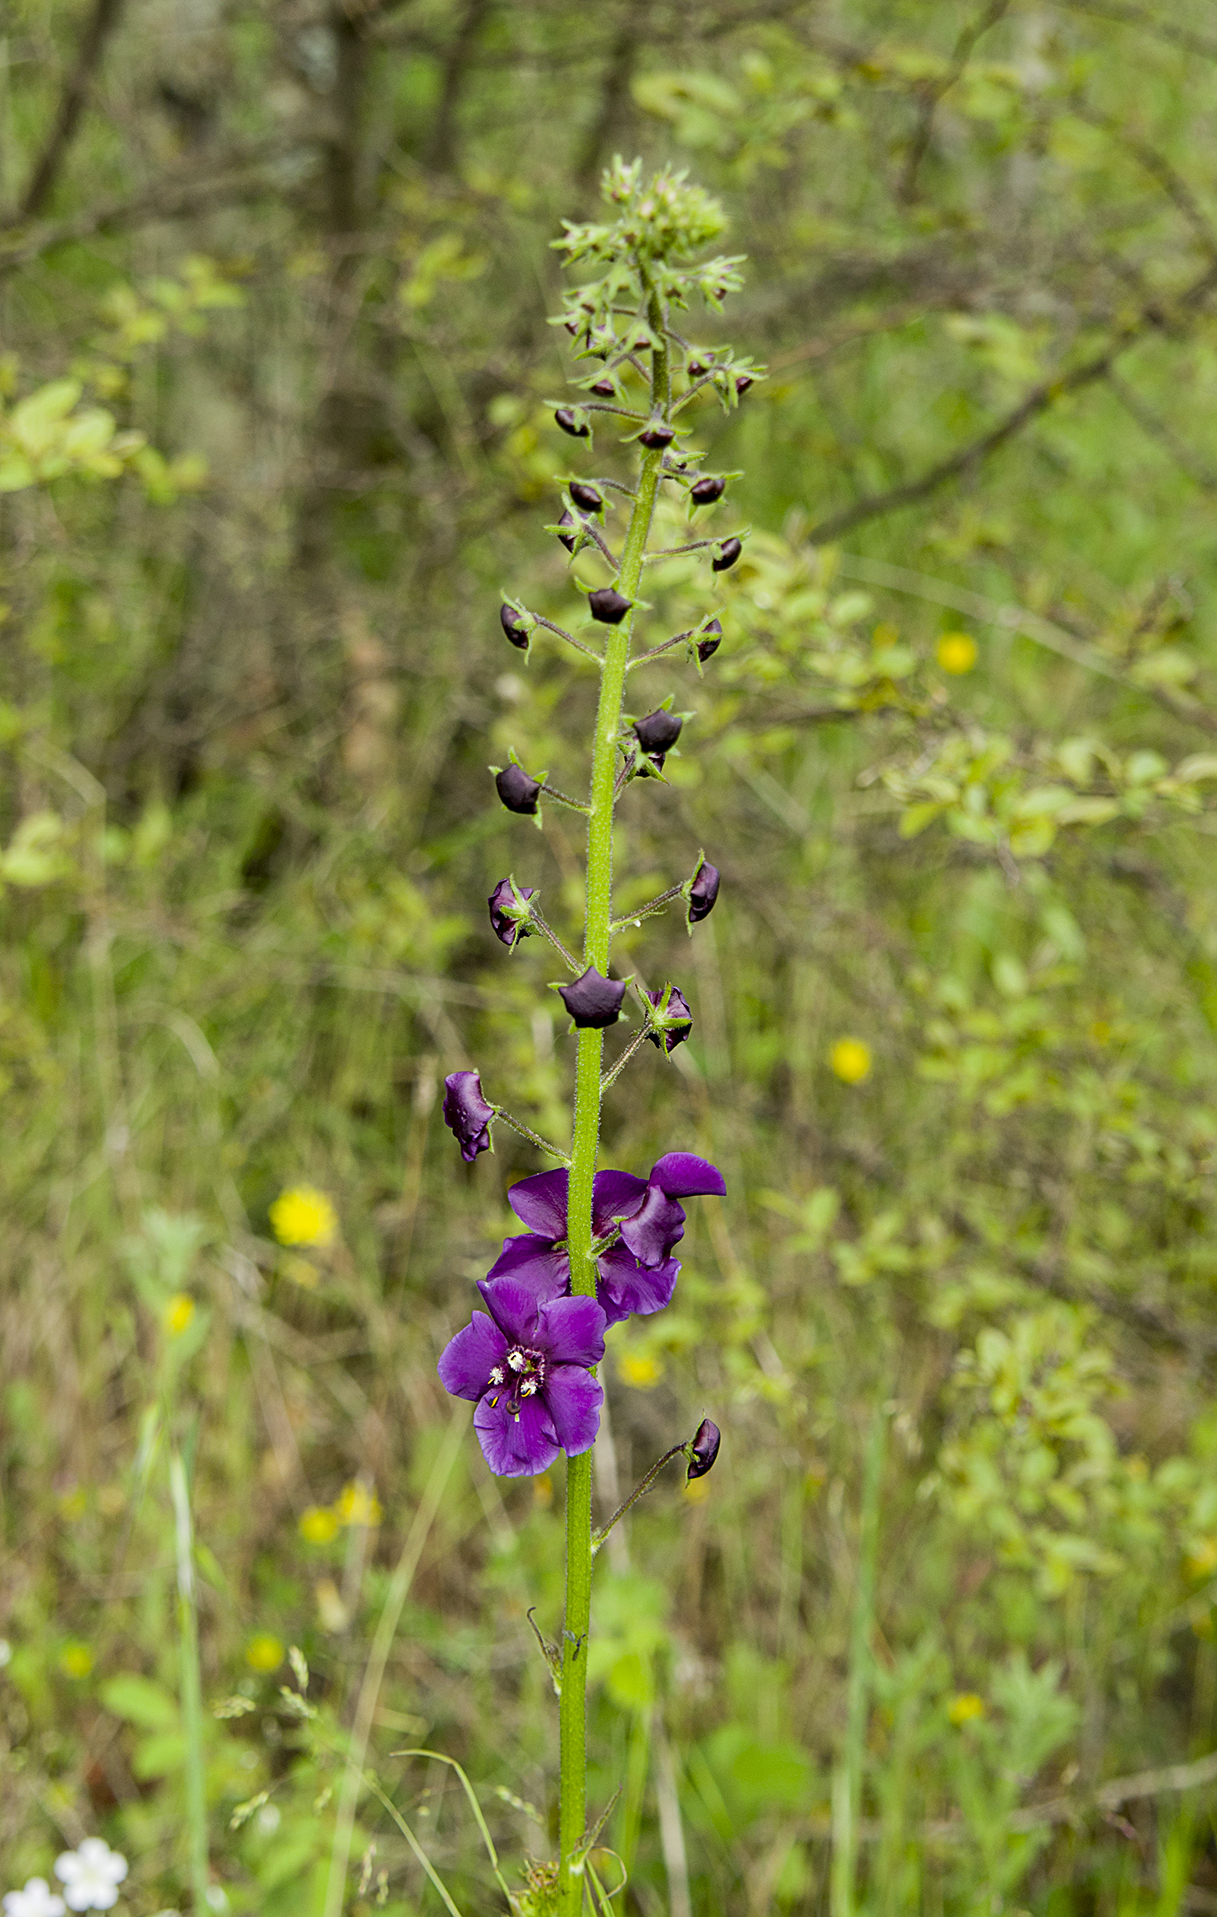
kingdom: Plantae
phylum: Tracheophyta
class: Magnoliopsida
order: Lamiales
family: Scrophulariaceae
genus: Verbascum
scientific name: Verbascum phoeniceum
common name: Purple mullein
